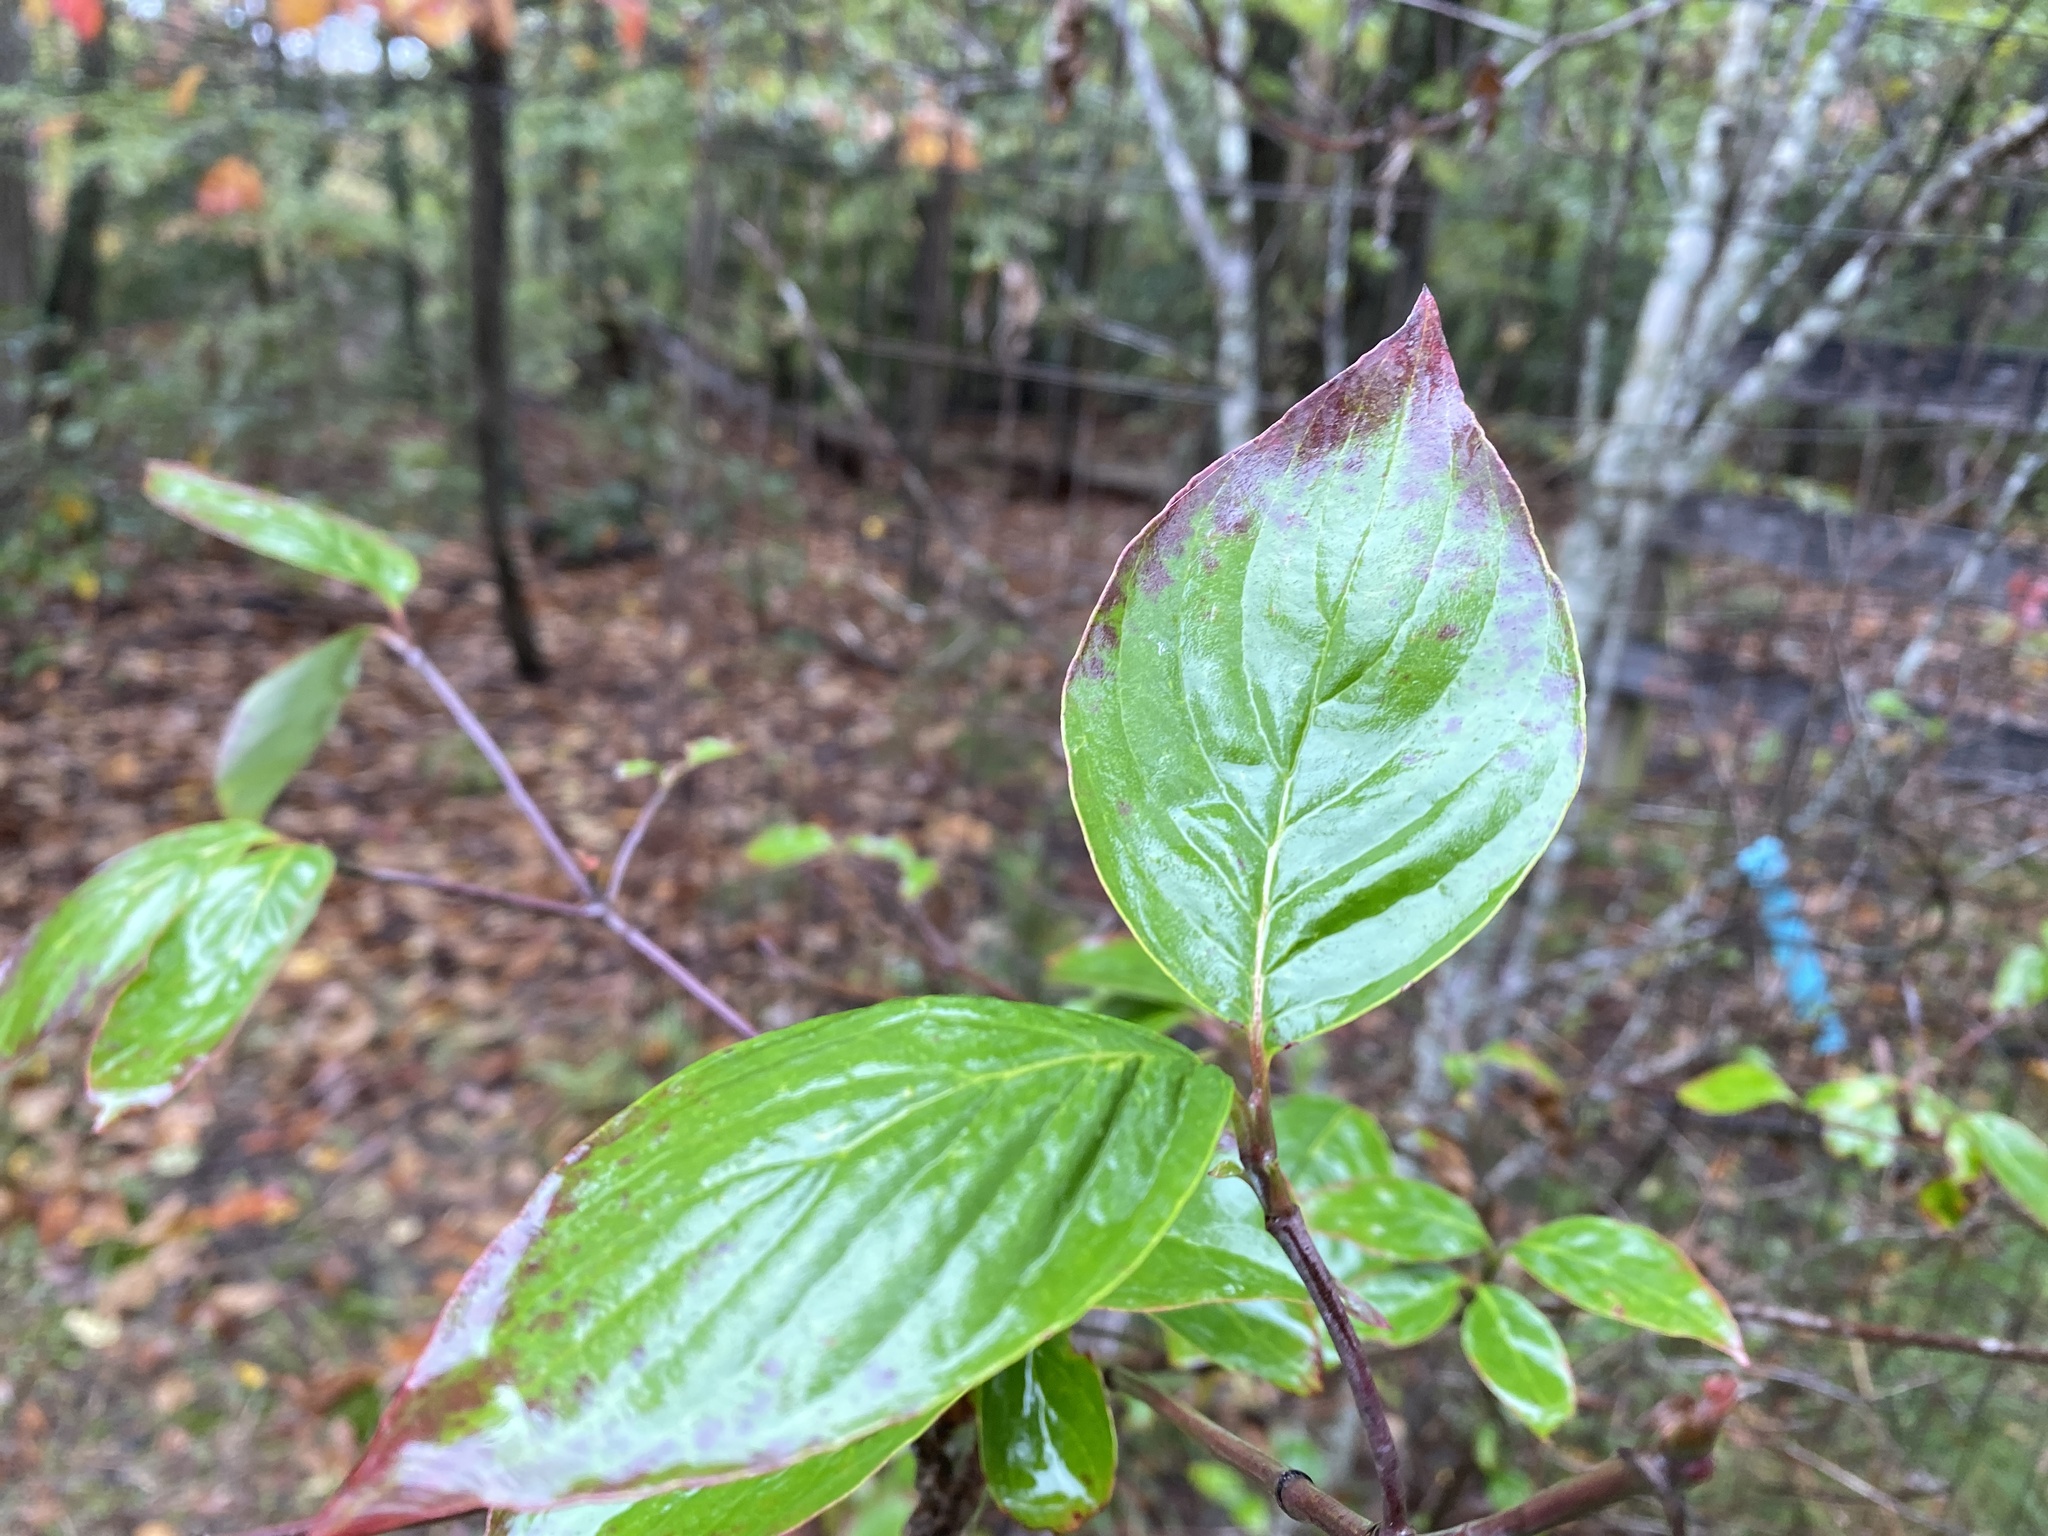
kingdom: Plantae
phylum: Tracheophyta
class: Magnoliopsida
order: Cornales
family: Cornaceae
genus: Cornus
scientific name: Cornus florida
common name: Flowering dogwood
